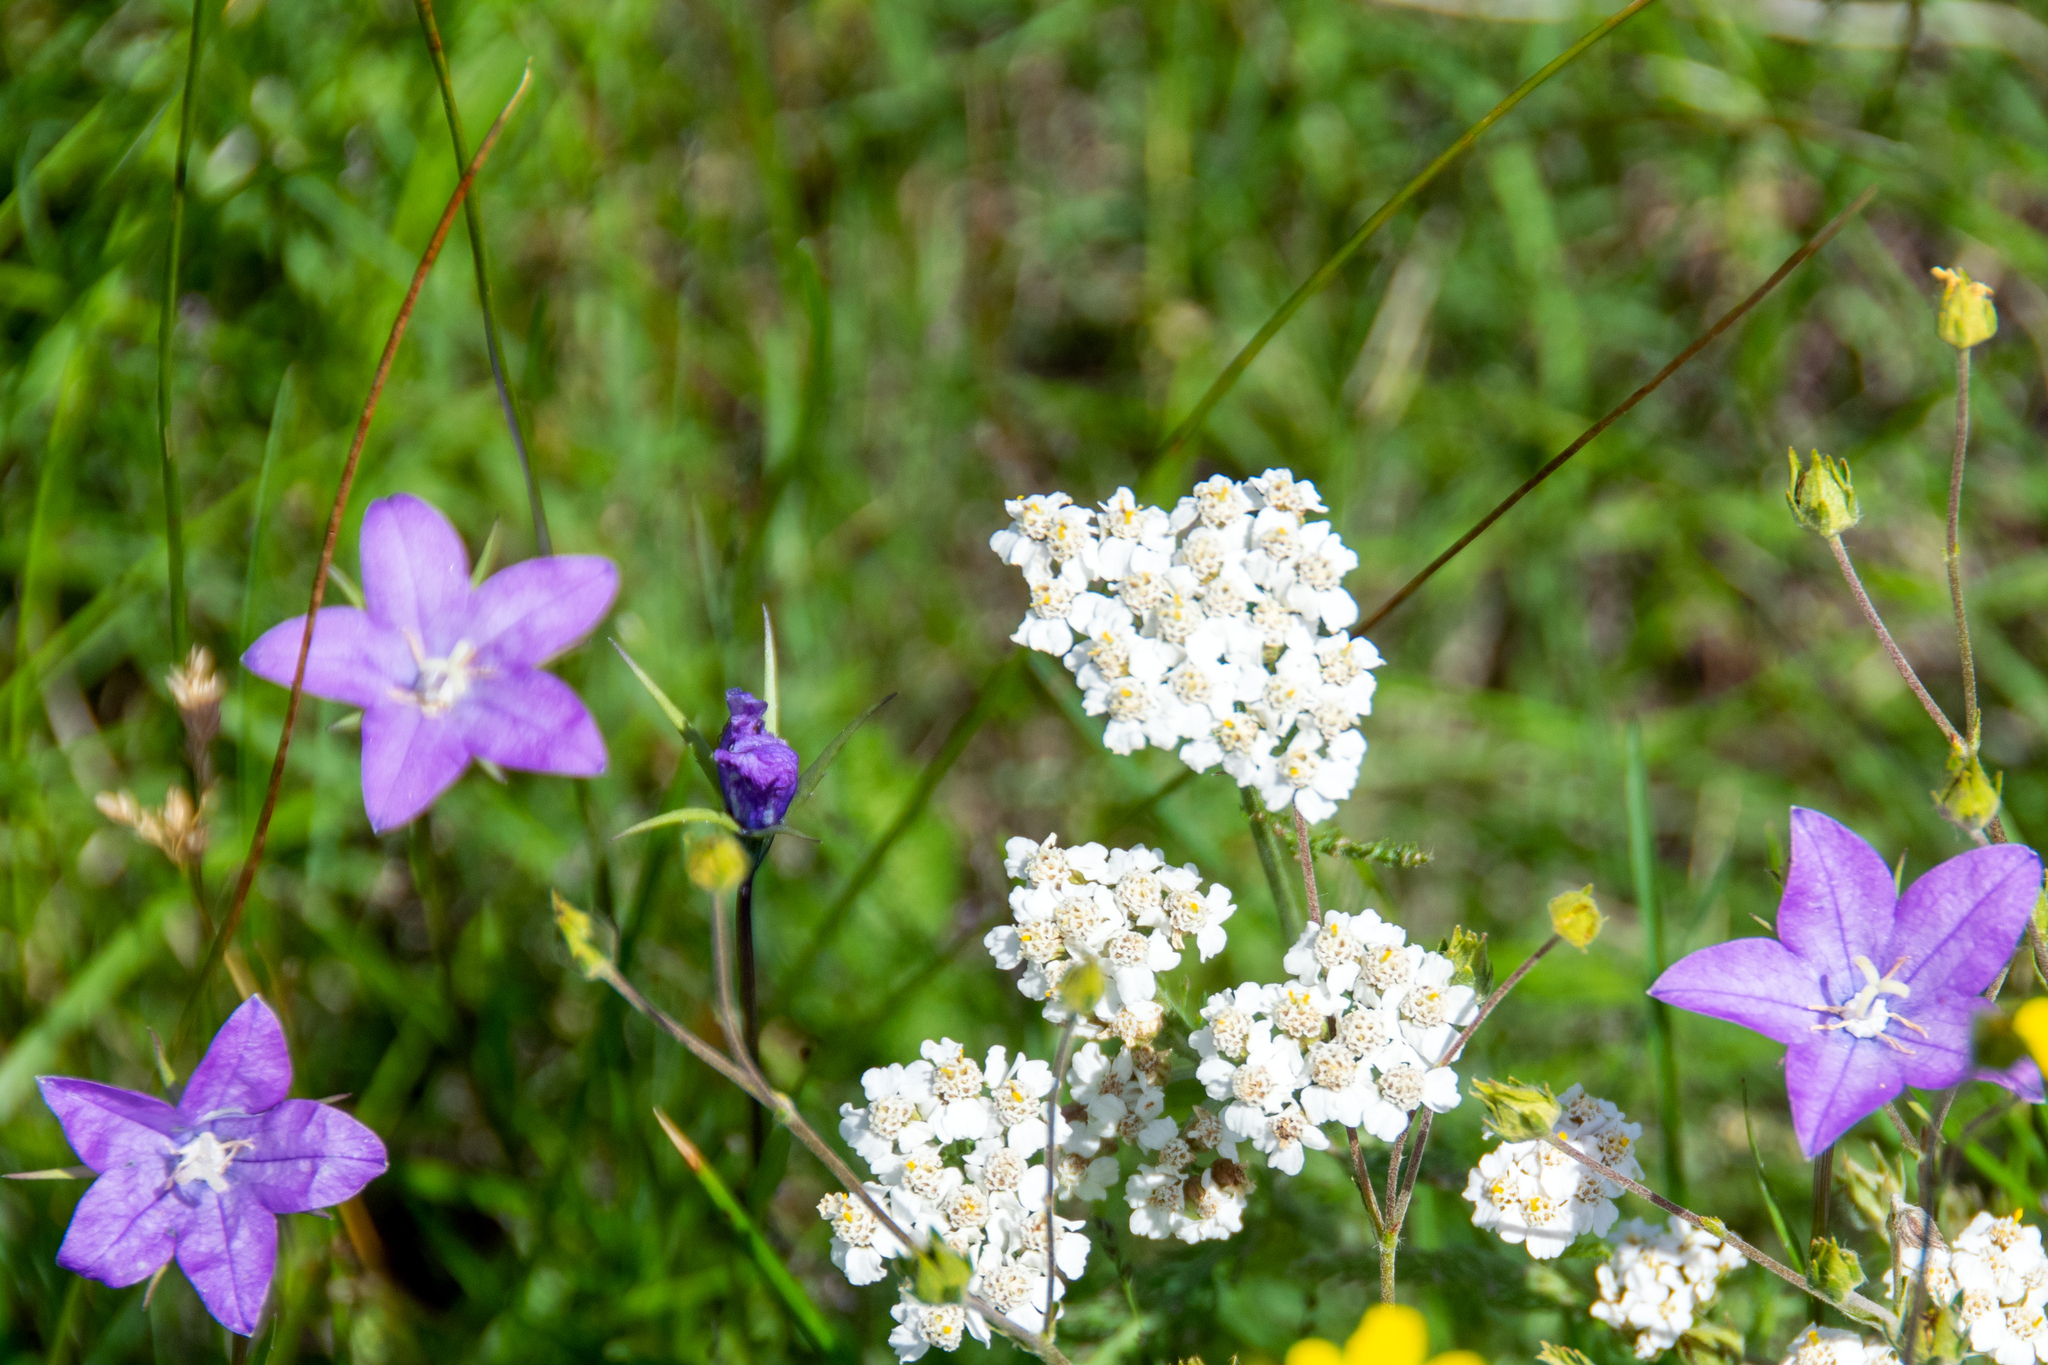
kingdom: Plantae
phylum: Tracheophyta
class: Magnoliopsida
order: Asterales
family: Asteraceae
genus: Achillea
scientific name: Achillea millefolium
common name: Yarrow
